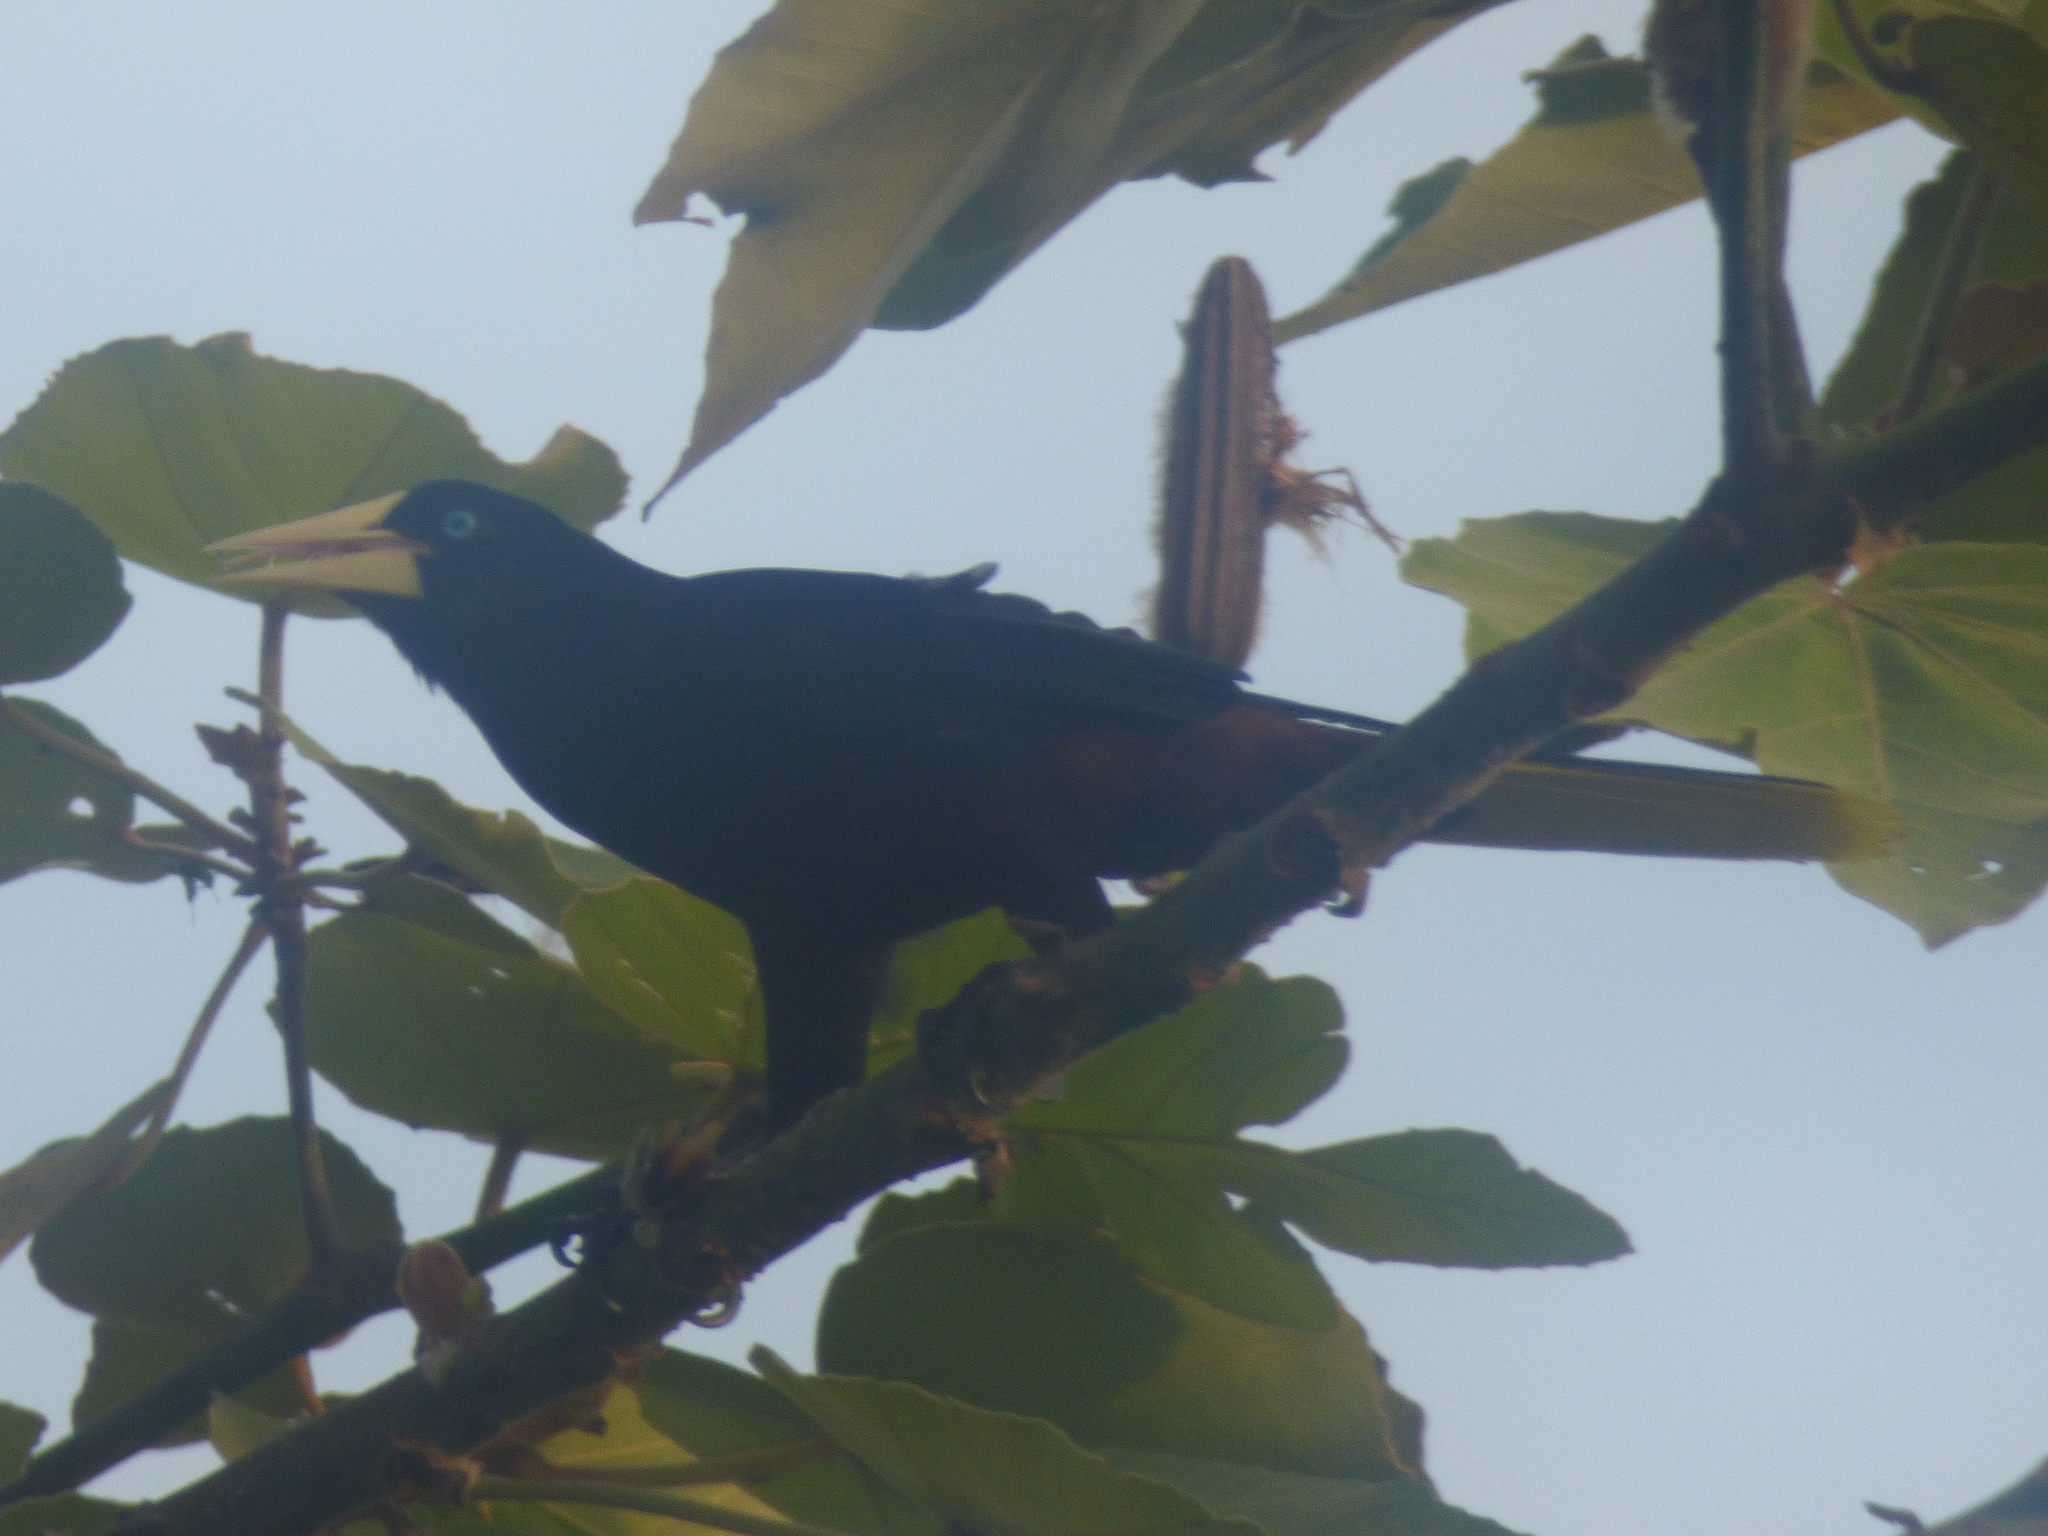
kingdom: Animalia
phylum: Chordata
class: Aves
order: Passeriformes
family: Icteridae
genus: Psarocolius
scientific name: Psarocolius decumanus
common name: Crested oropendola
